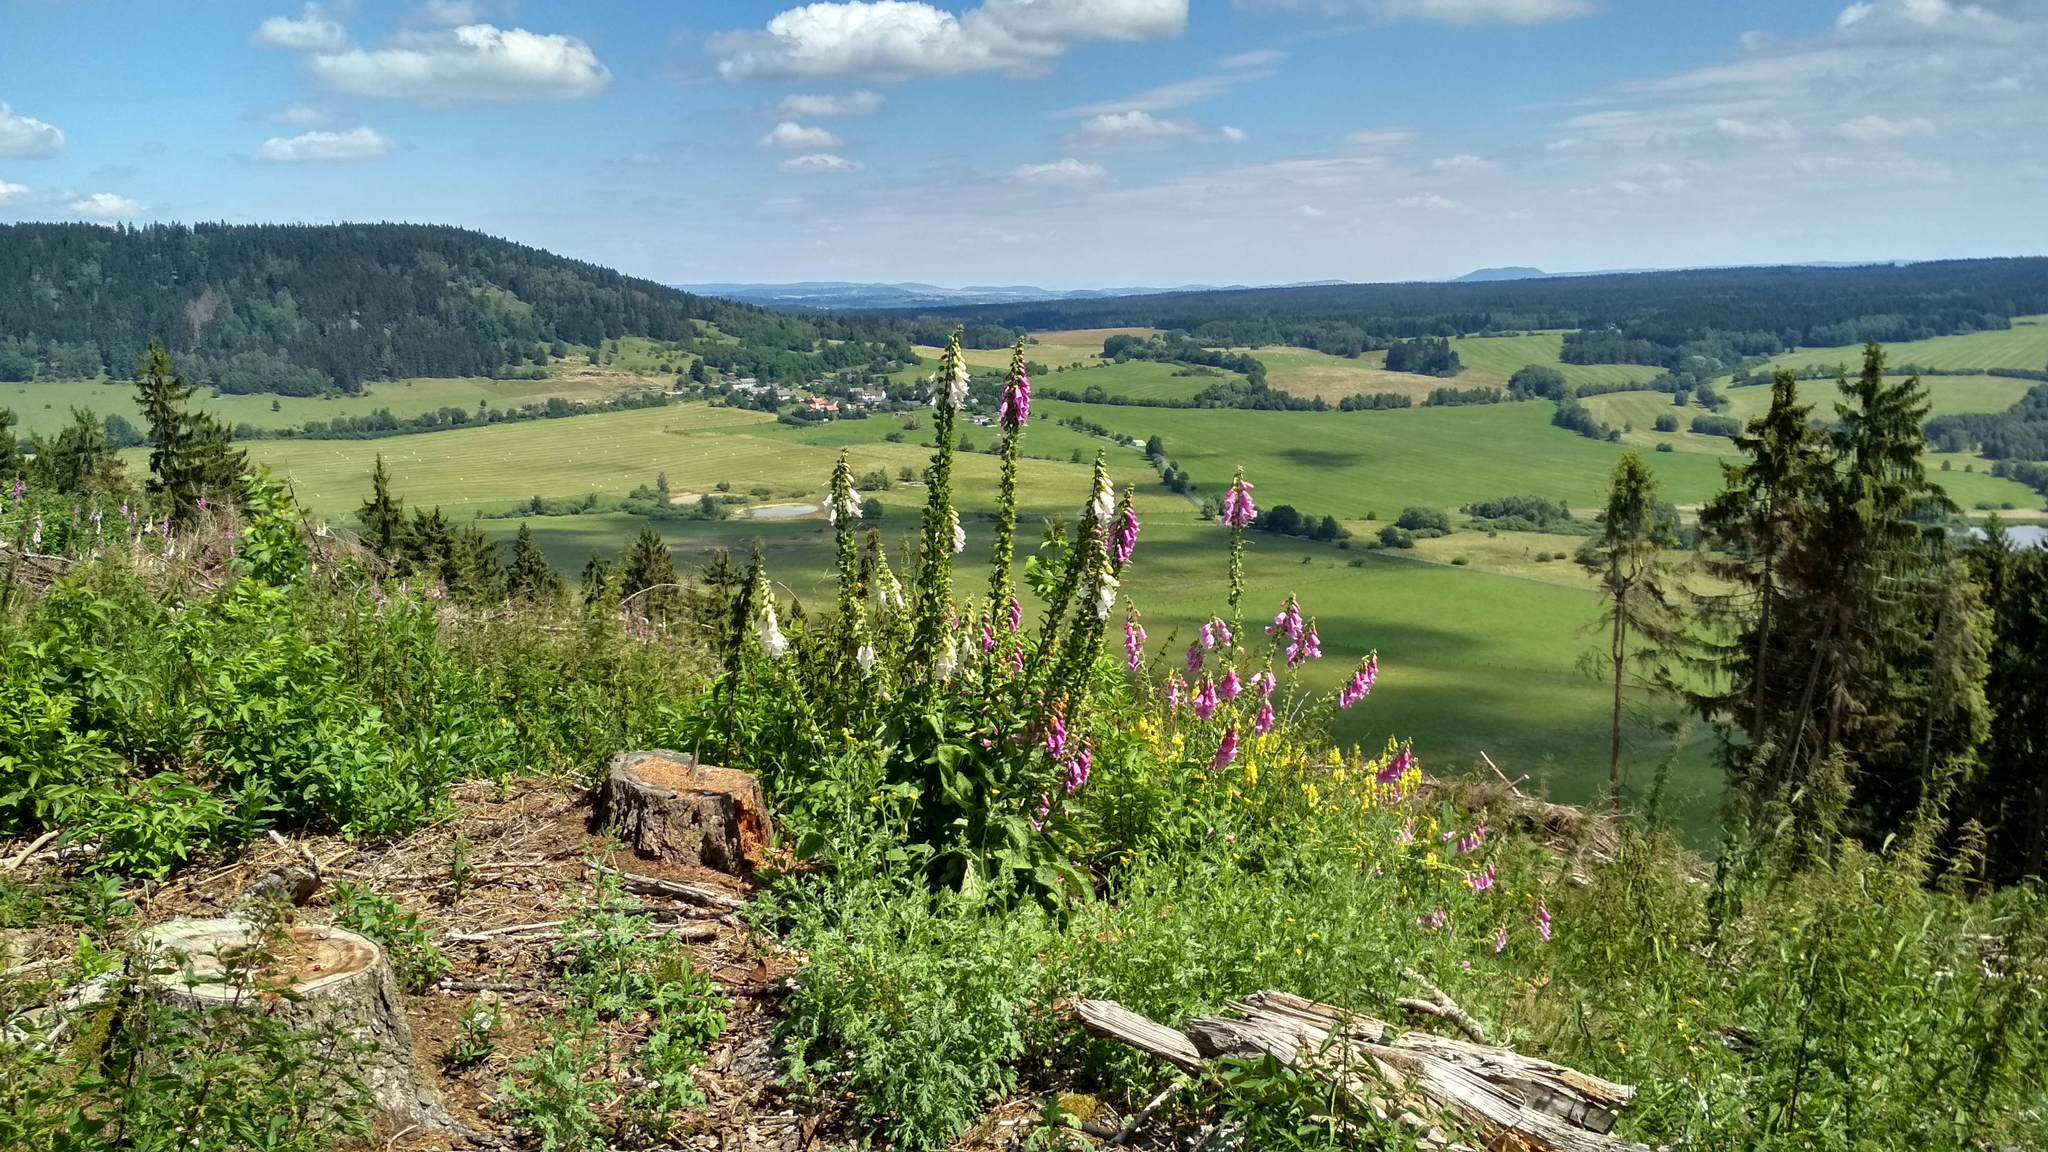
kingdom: Plantae
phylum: Tracheophyta
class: Magnoliopsida
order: Lamiales
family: Plantaginaceae
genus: Digitalis
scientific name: Digitalis purpurea
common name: Foxglove
